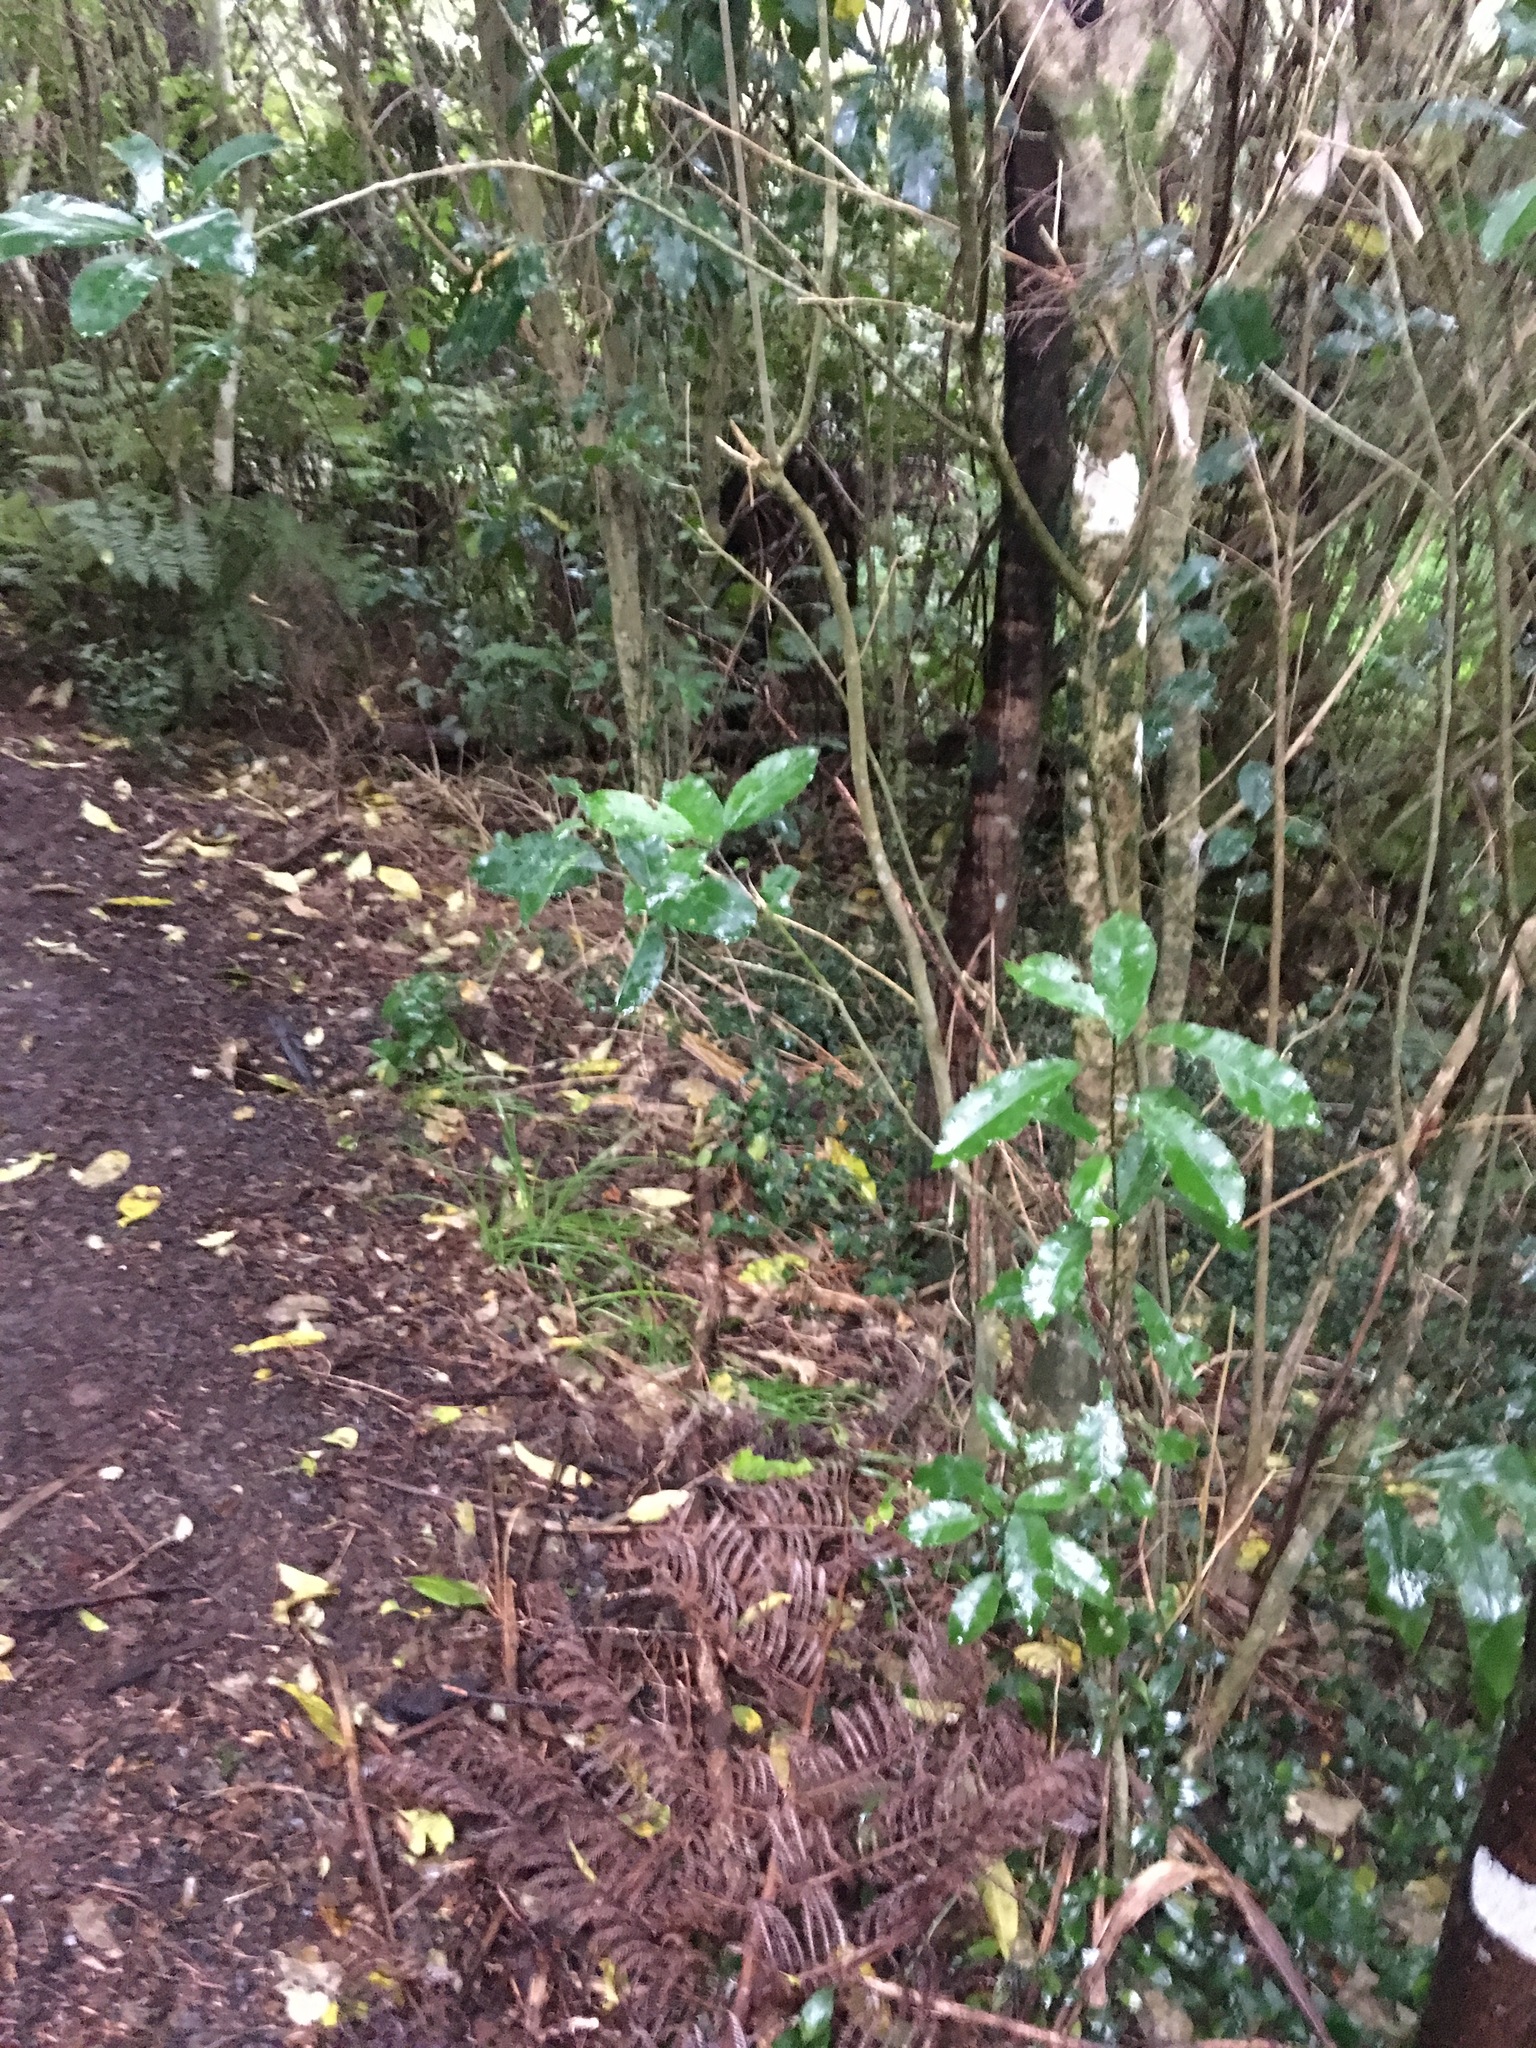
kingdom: Plantae
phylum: Tracheophyta
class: Magnoliopsida
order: Malpighiales
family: Violaceae
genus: Melicytus
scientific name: Melicytus ramiflorus
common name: Mahoe
